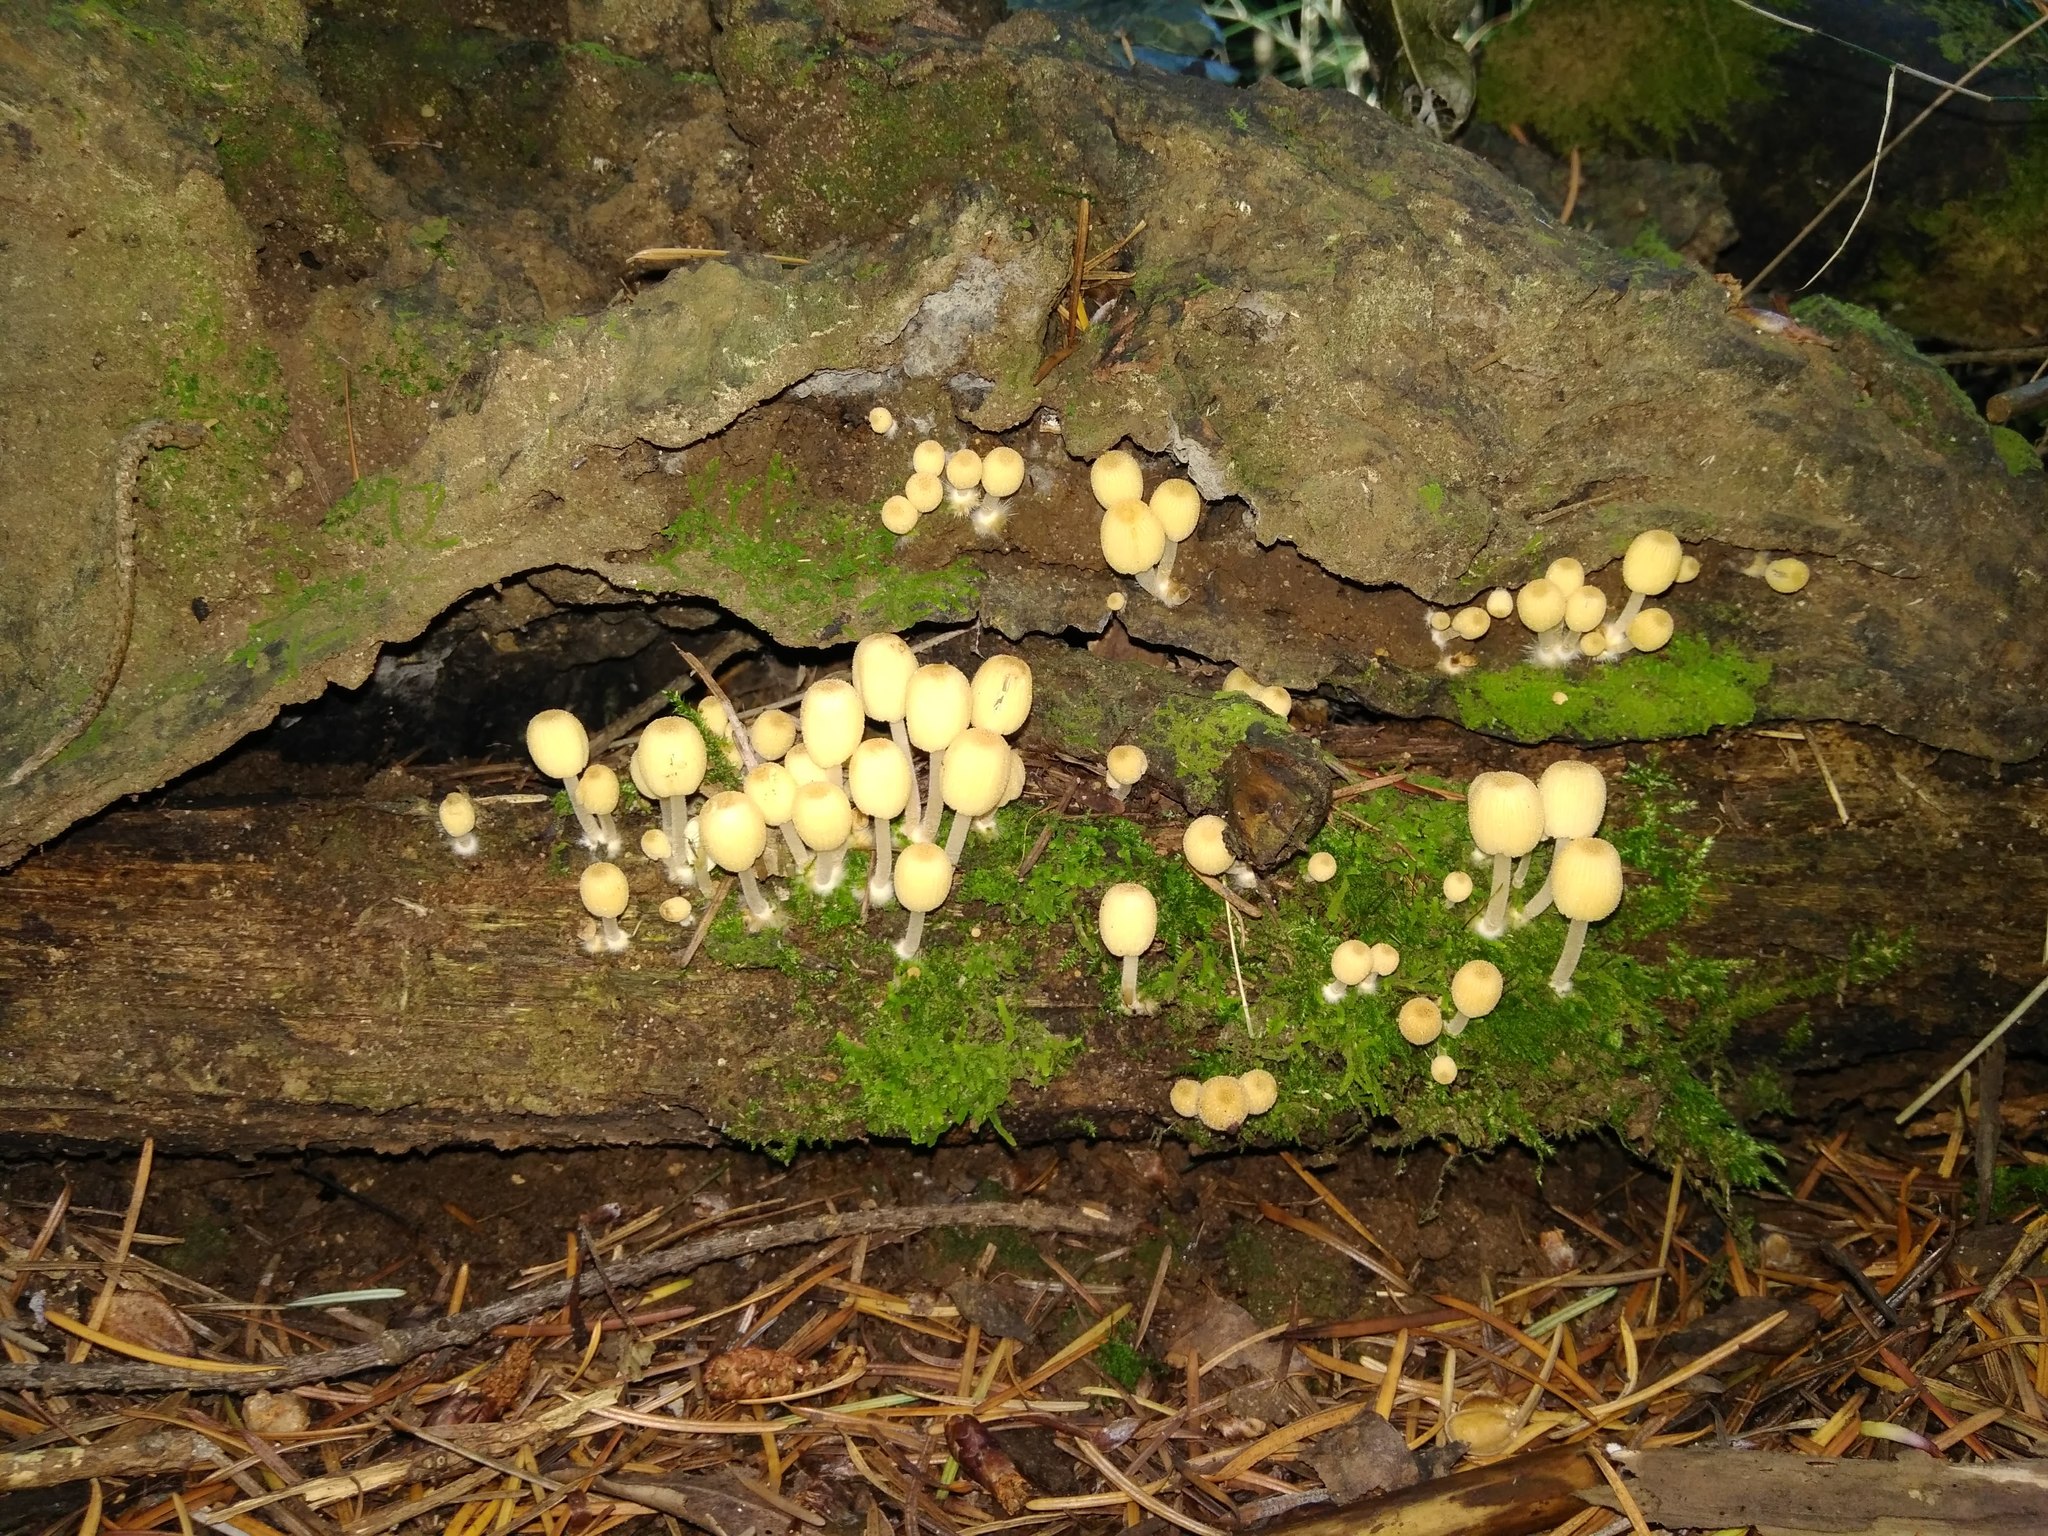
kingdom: Fungi
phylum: Basidiomycota
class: Agaricomycetes
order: Agaricales
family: Psathyrellaceae
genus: Coprinellus
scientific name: Coprinellus disseminatus
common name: Fairies' bonnets
